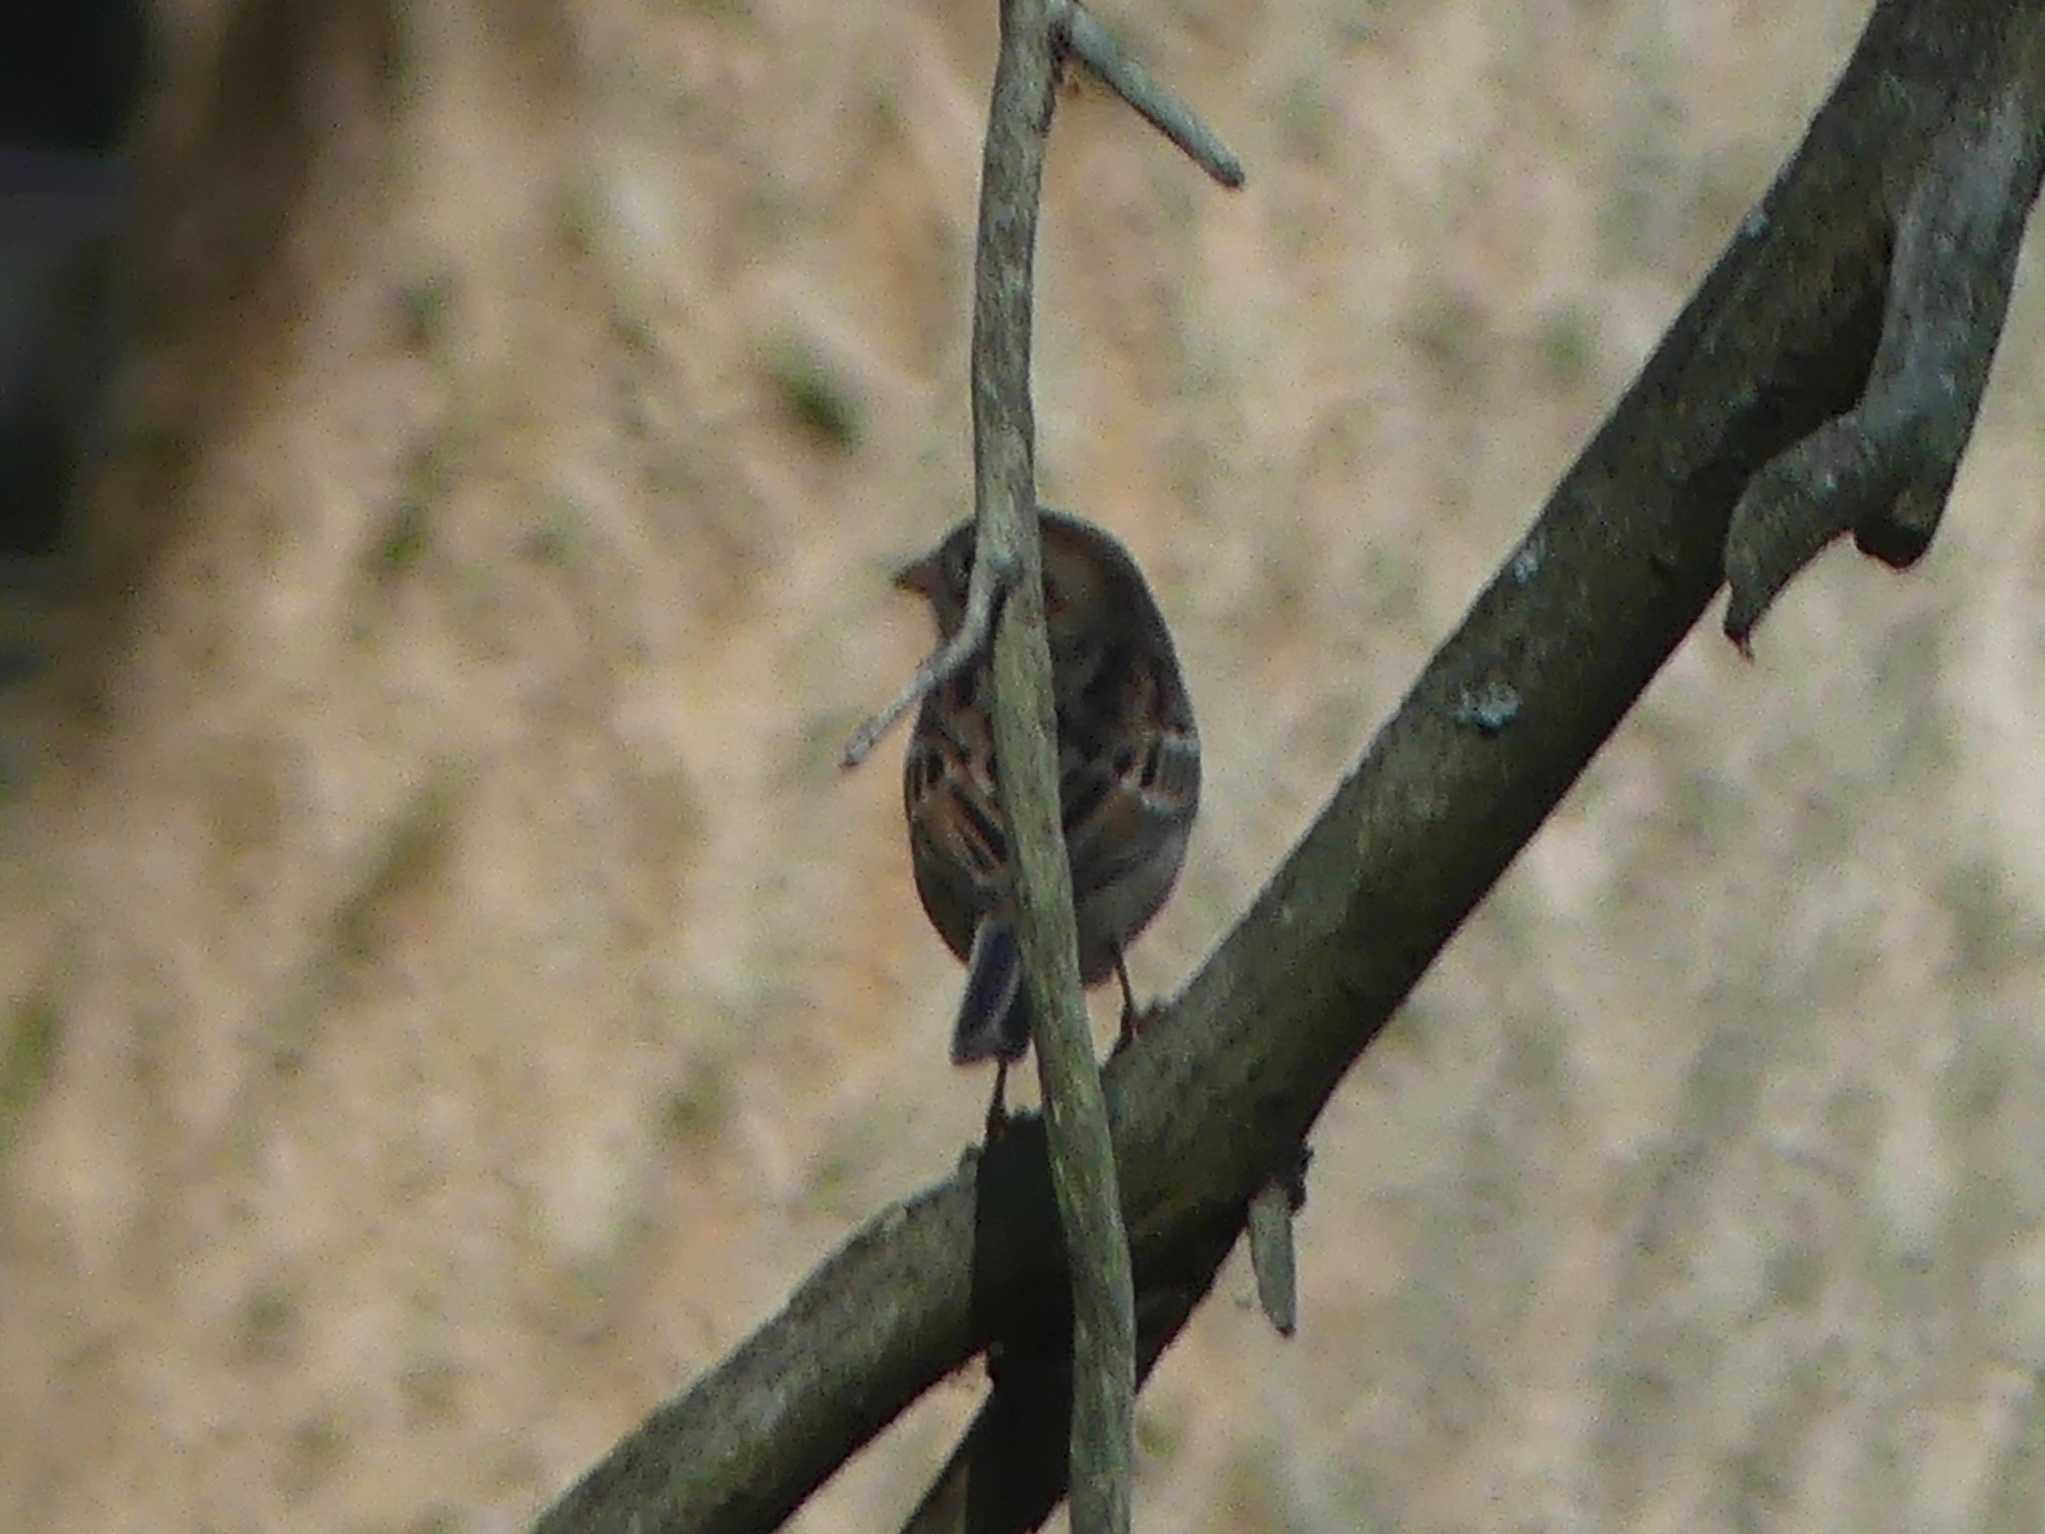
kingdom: Animalia
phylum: Chordata
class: Aves
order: Passeriformes
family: Passerellidae
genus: Spizella
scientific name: Spizella pusilla
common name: Field sparrow
